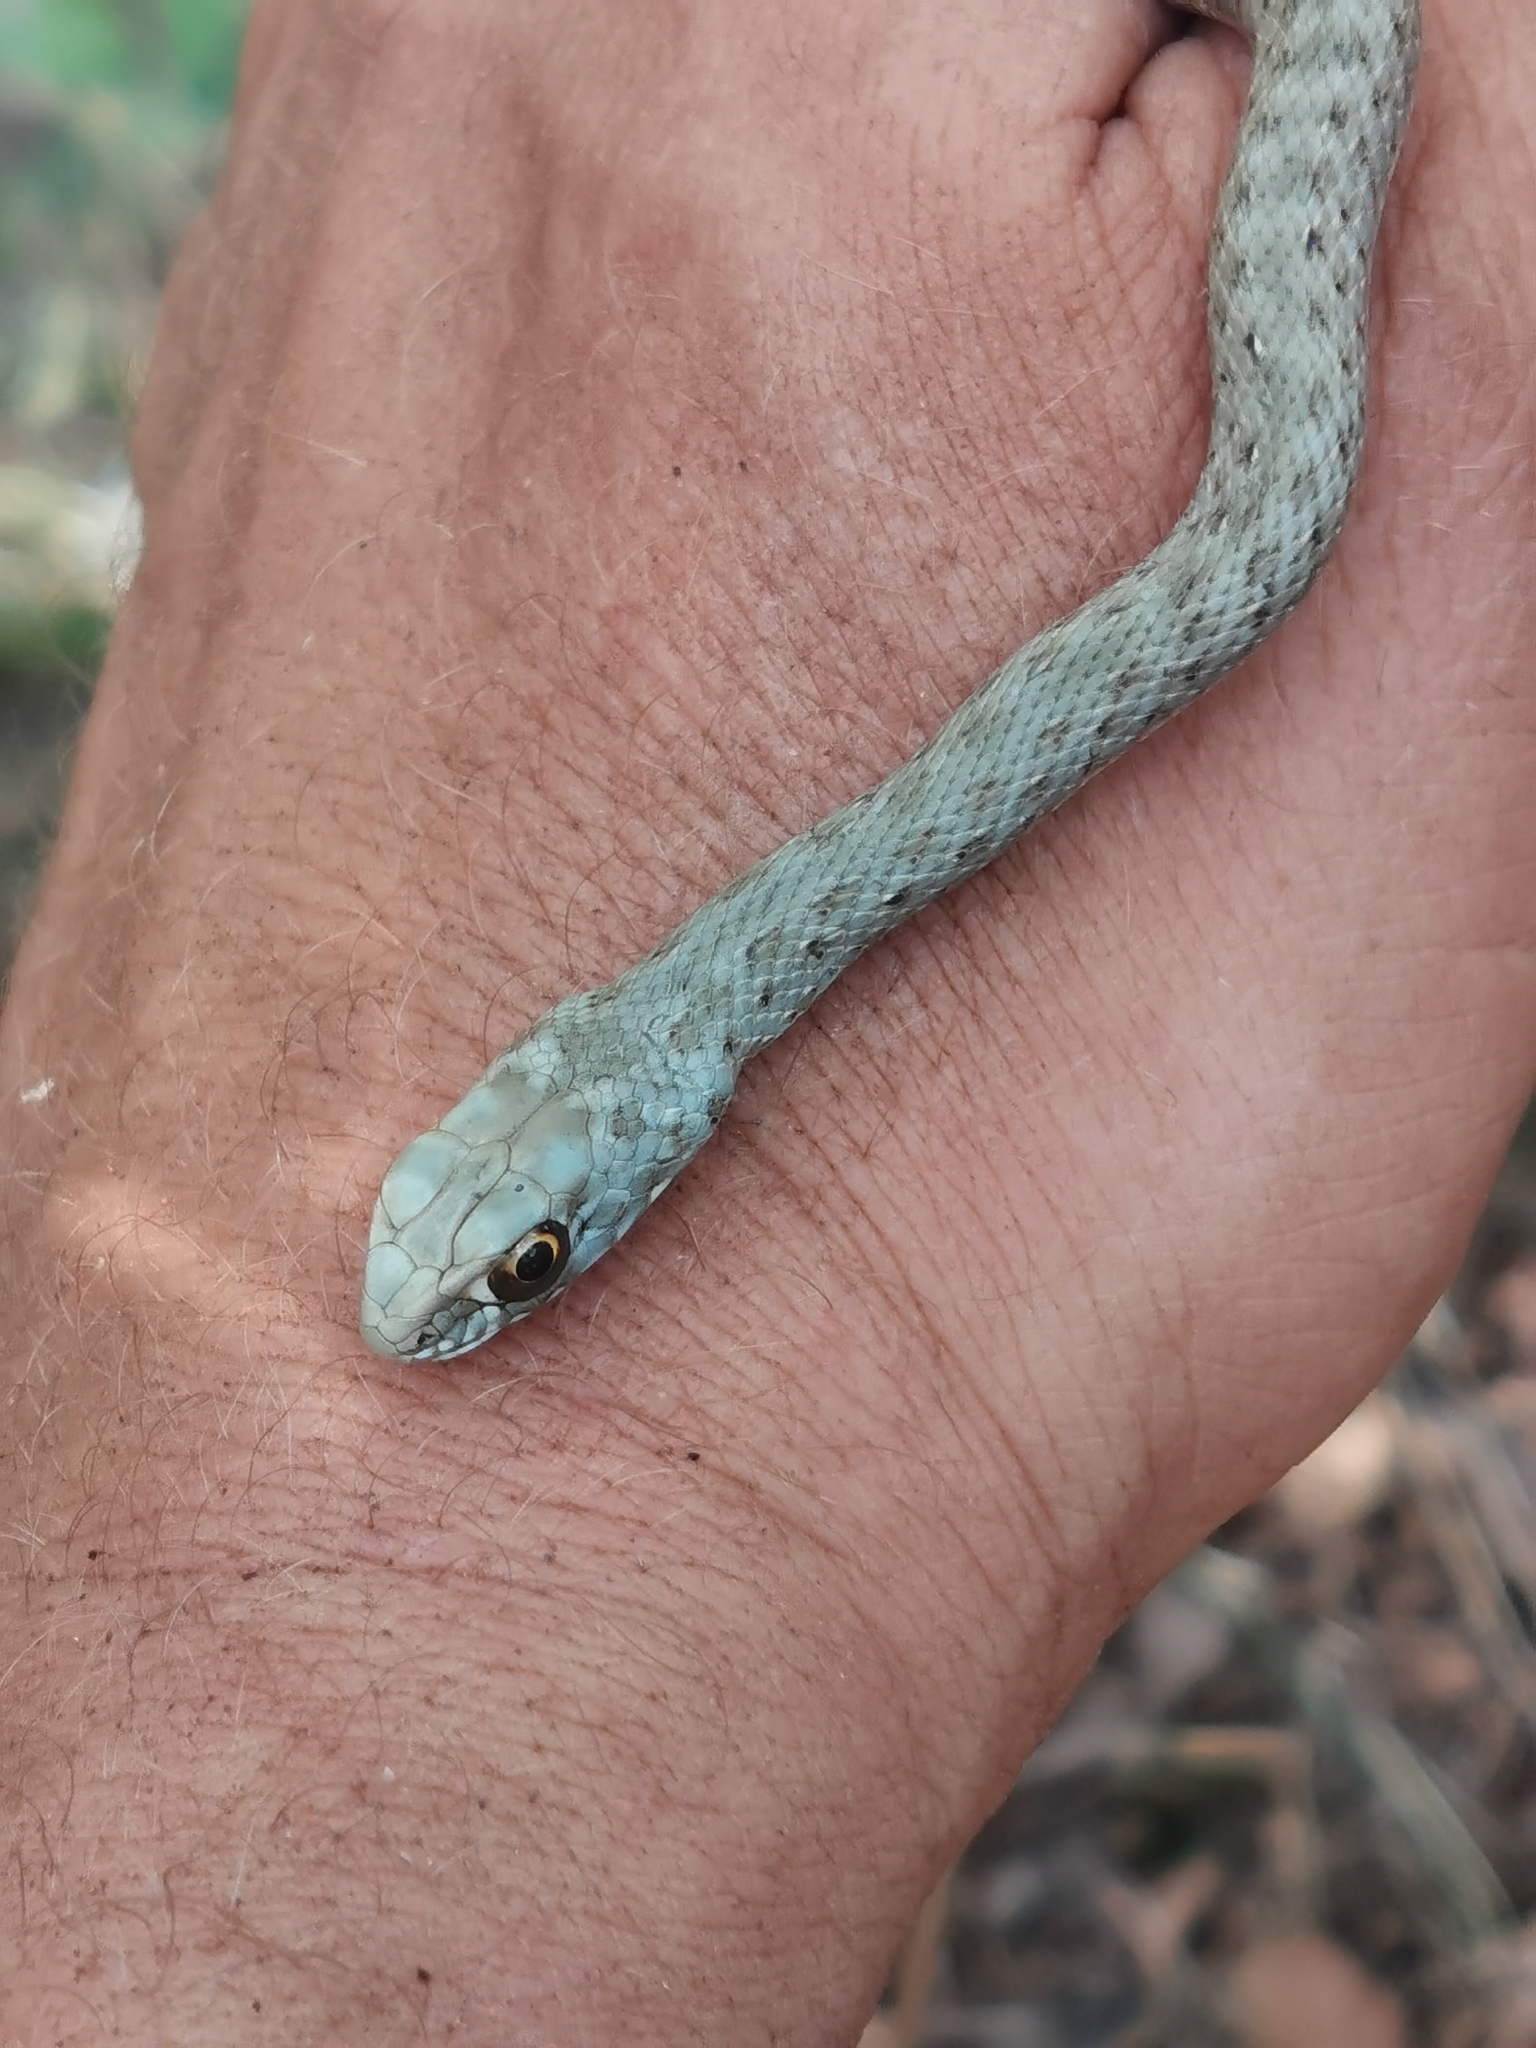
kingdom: Animalia
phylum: Chordata
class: Squamata
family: Psammophiidae
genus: Malpolon
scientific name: Malpolon monspessulanus
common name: Montpellier snake
